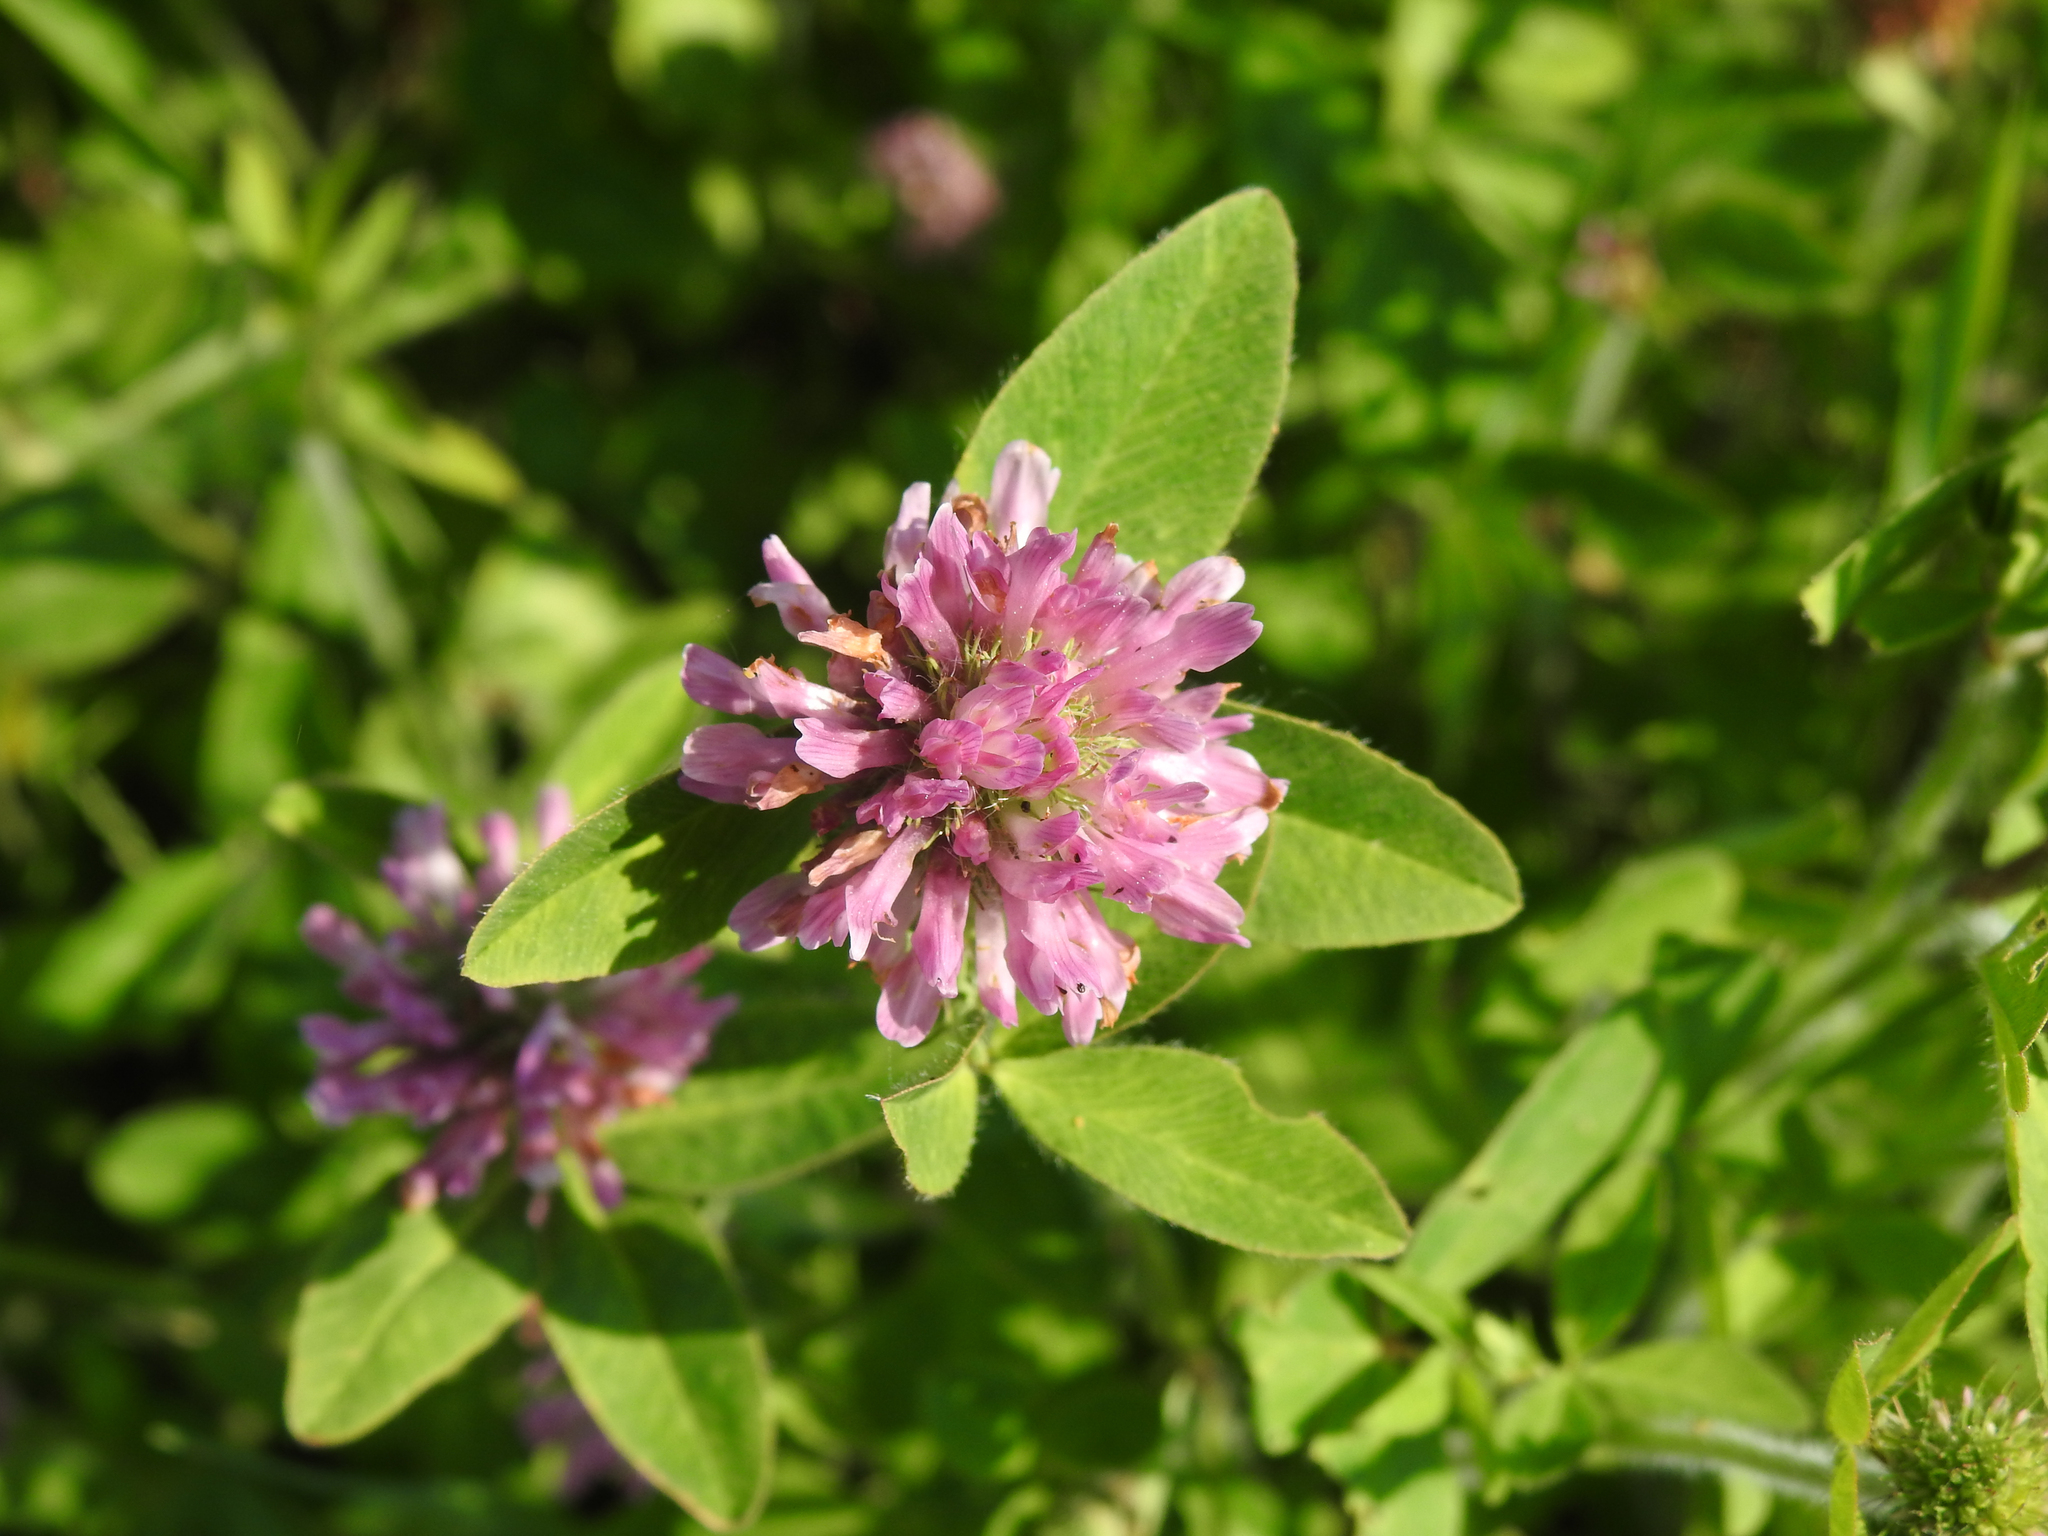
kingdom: Plantae
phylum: Tracheophyta
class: Magnoliopsida
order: Fabales
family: Fabaceae
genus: Trifolium
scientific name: Trifolium pratense
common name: Red clover
